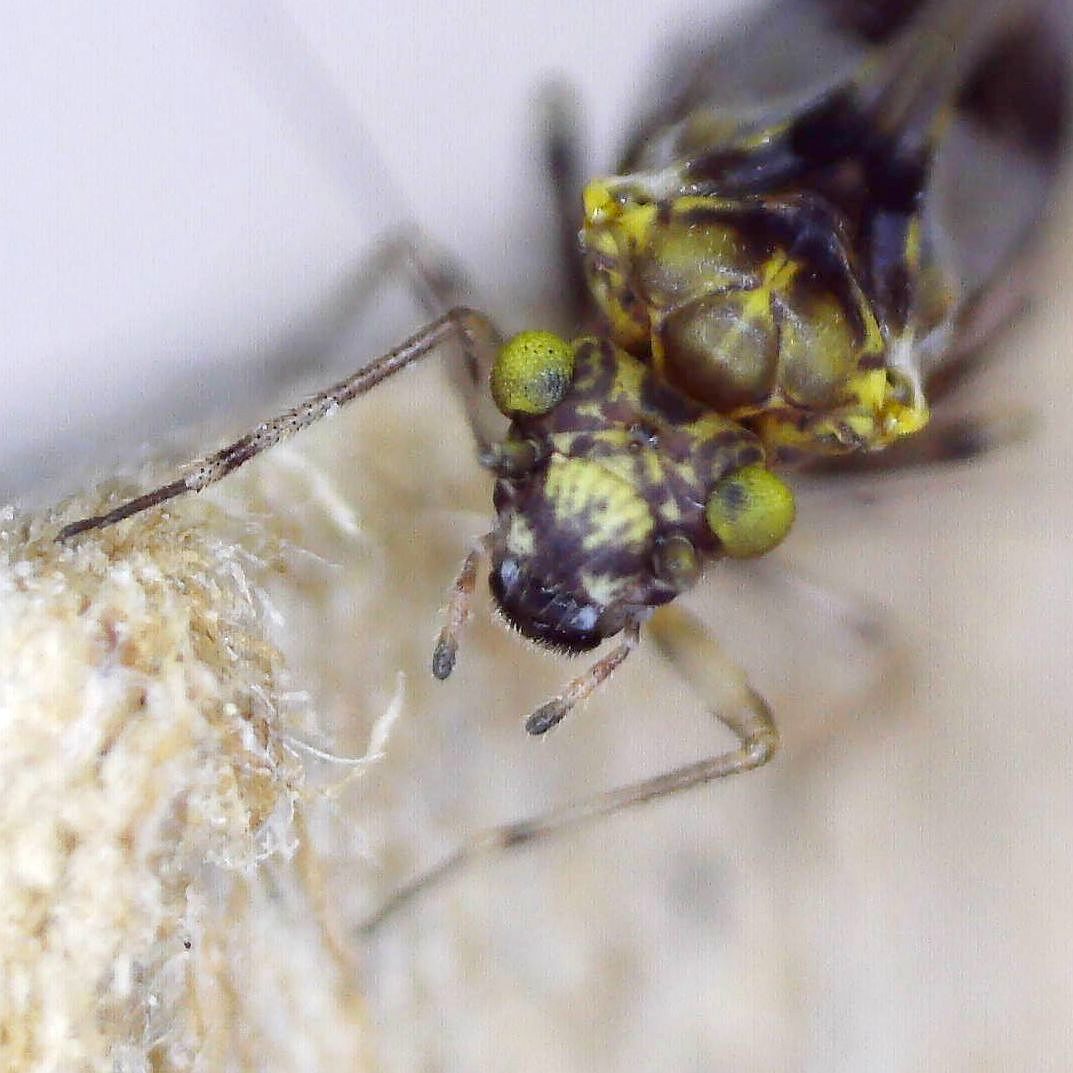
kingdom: Animalia
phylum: Arthropoda
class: Insecta
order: Psocodea
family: Psocidae
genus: Trichadenotecnum
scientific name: Trichadenotecnum majus
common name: Common bark louse
